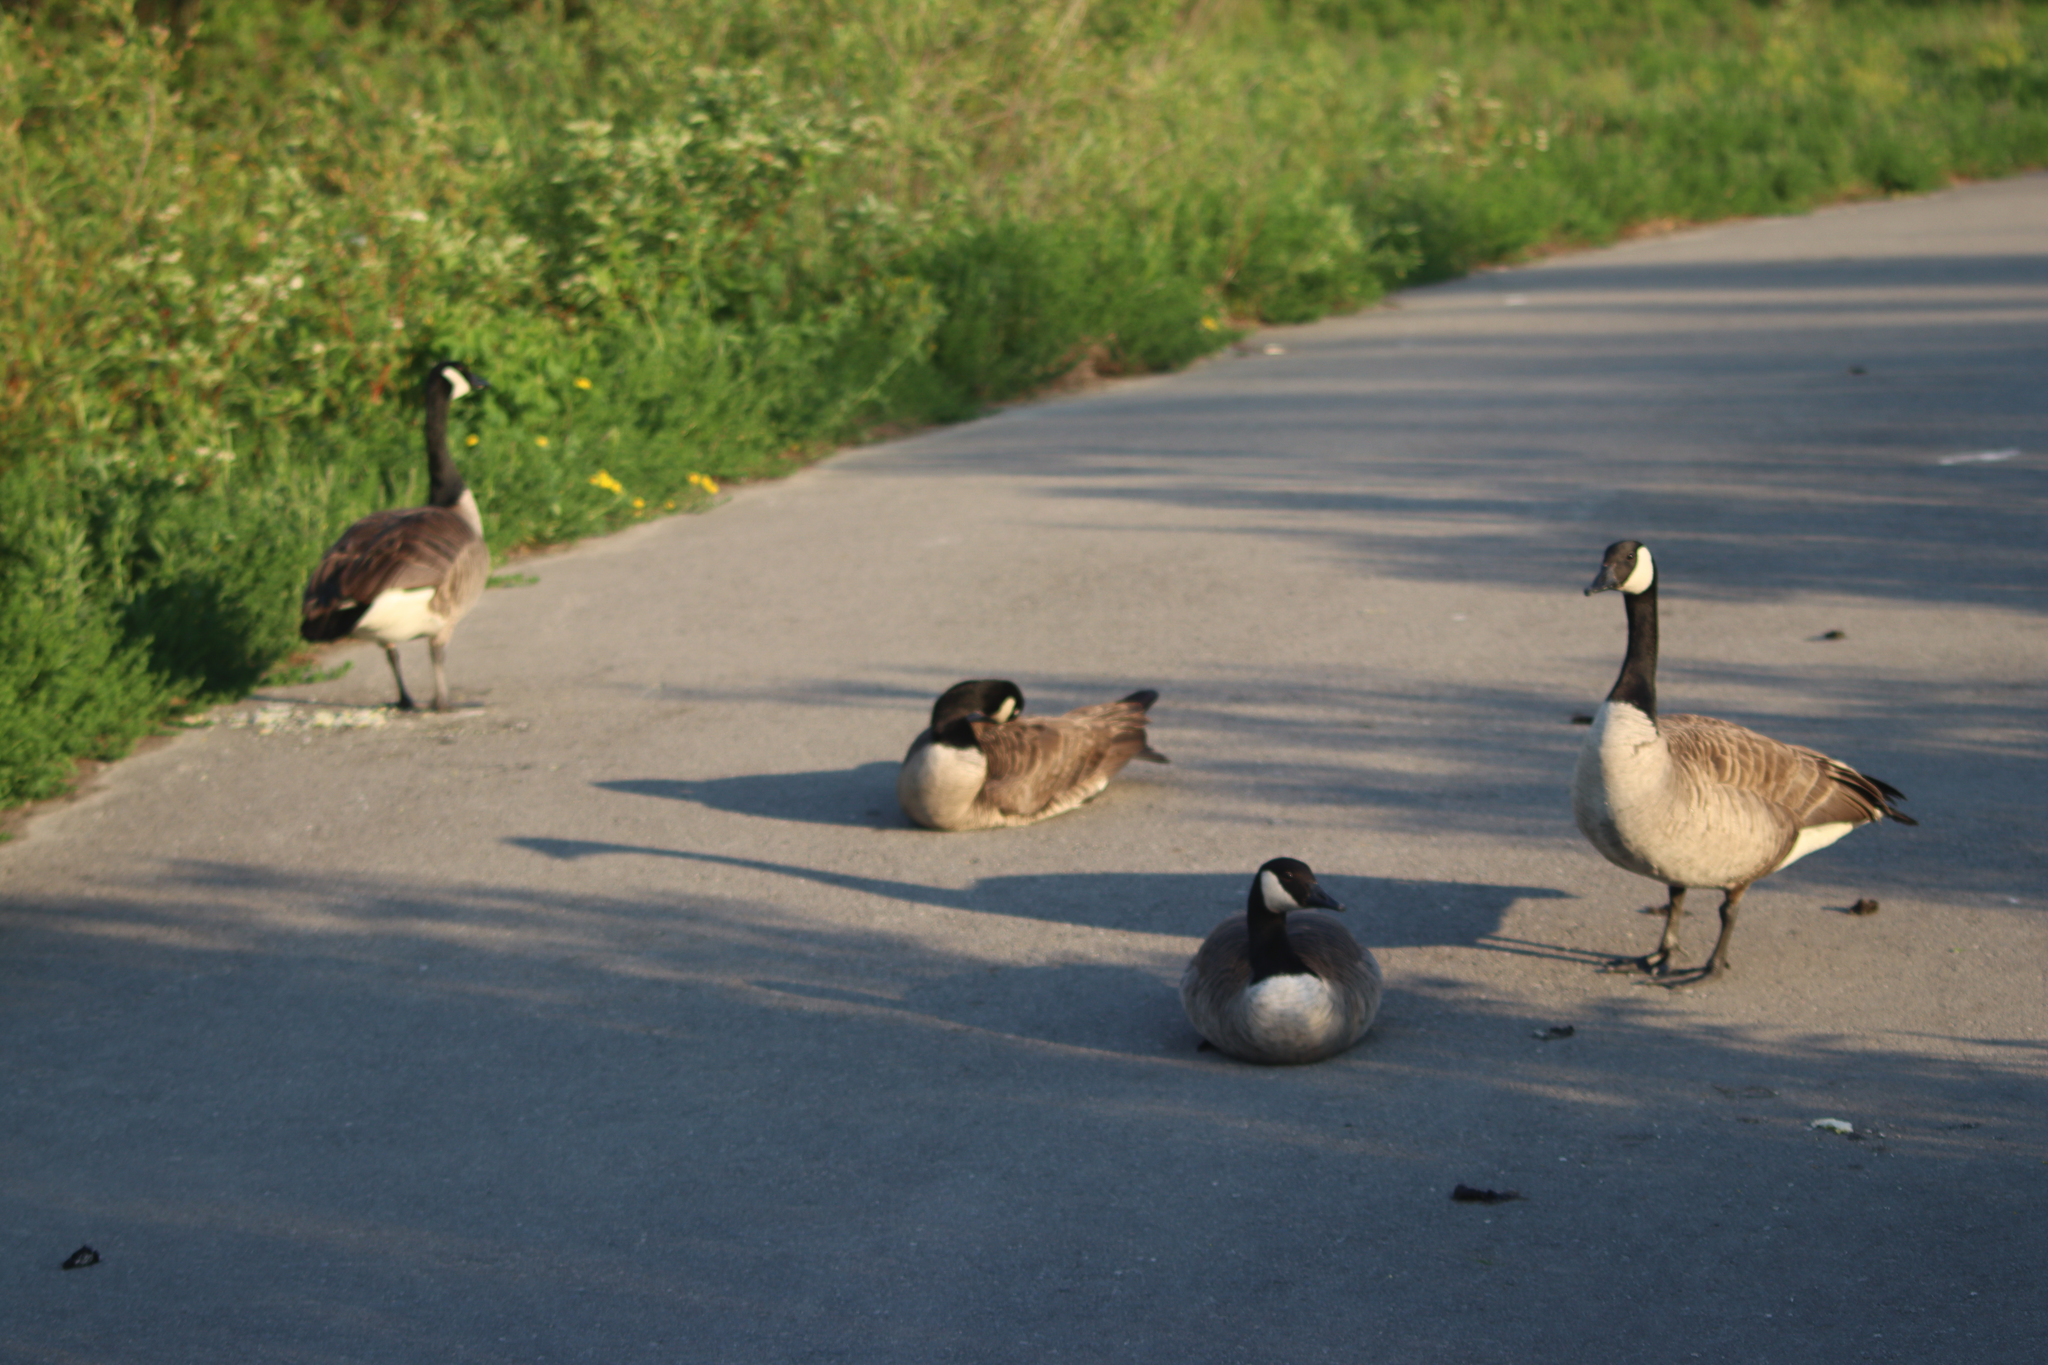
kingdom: Animalia
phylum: Chordata
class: Aves
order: Anseriformes
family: Anatidae
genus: Branta
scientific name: Branta canadensis
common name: Canada goose
